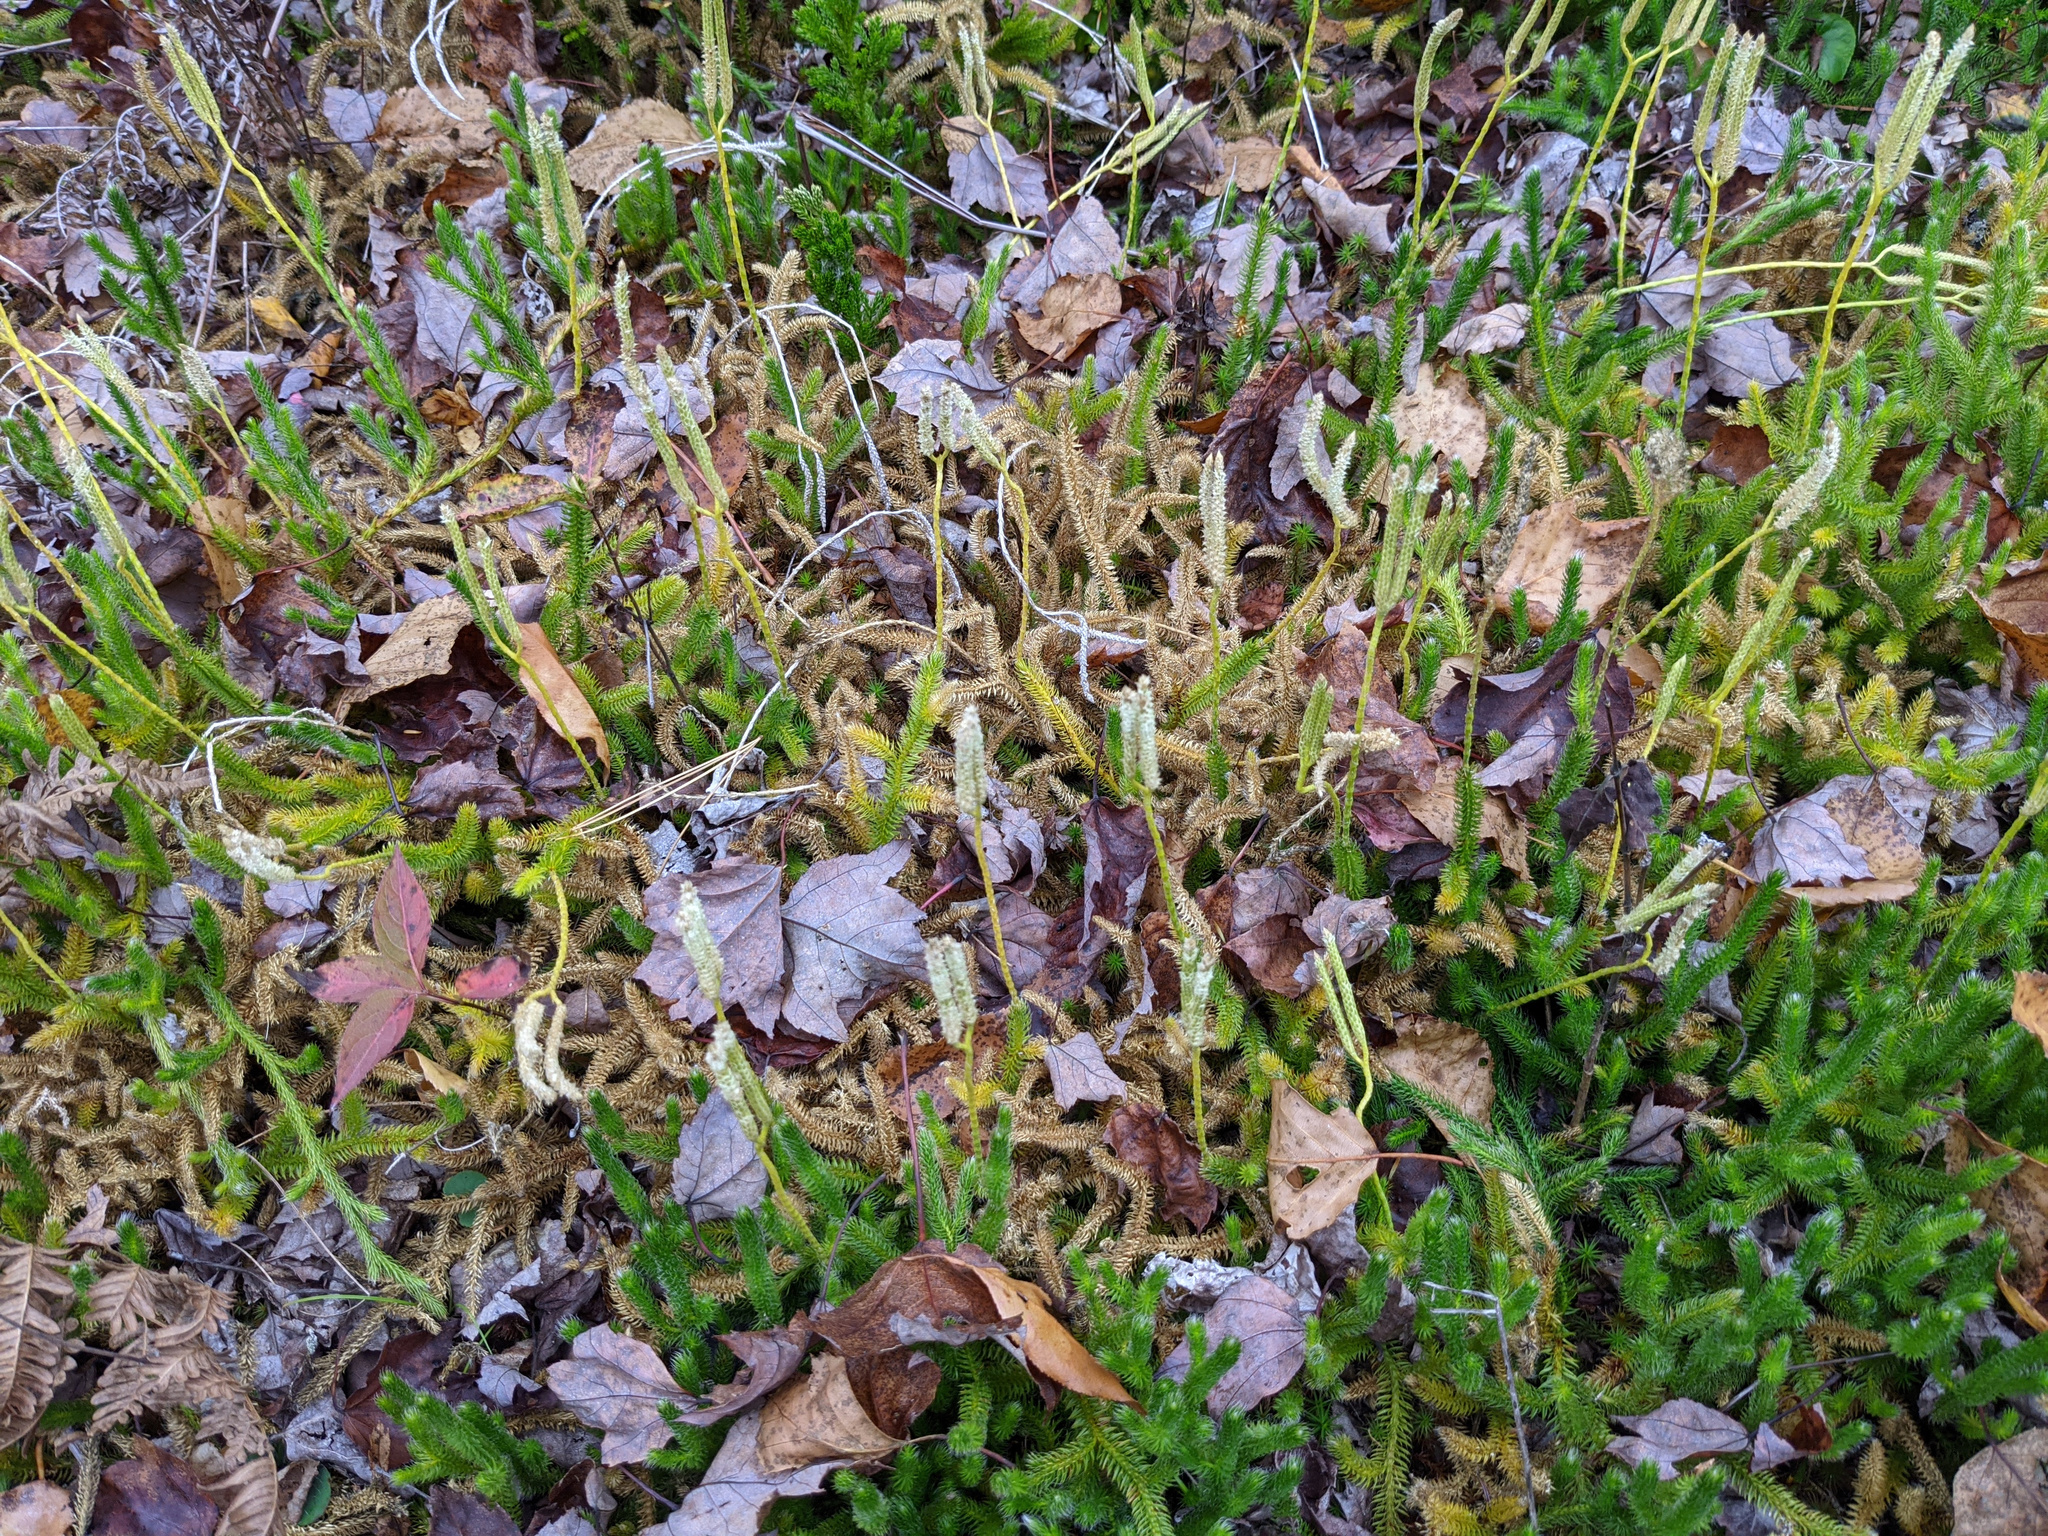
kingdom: Plantae
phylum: Tracheophyta
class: Lycopodiopsida
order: Lycopodiales
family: Lycopodiaceae
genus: Lycopodium
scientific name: Lycopodium clavatum
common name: Stag's-horn clubmoss
